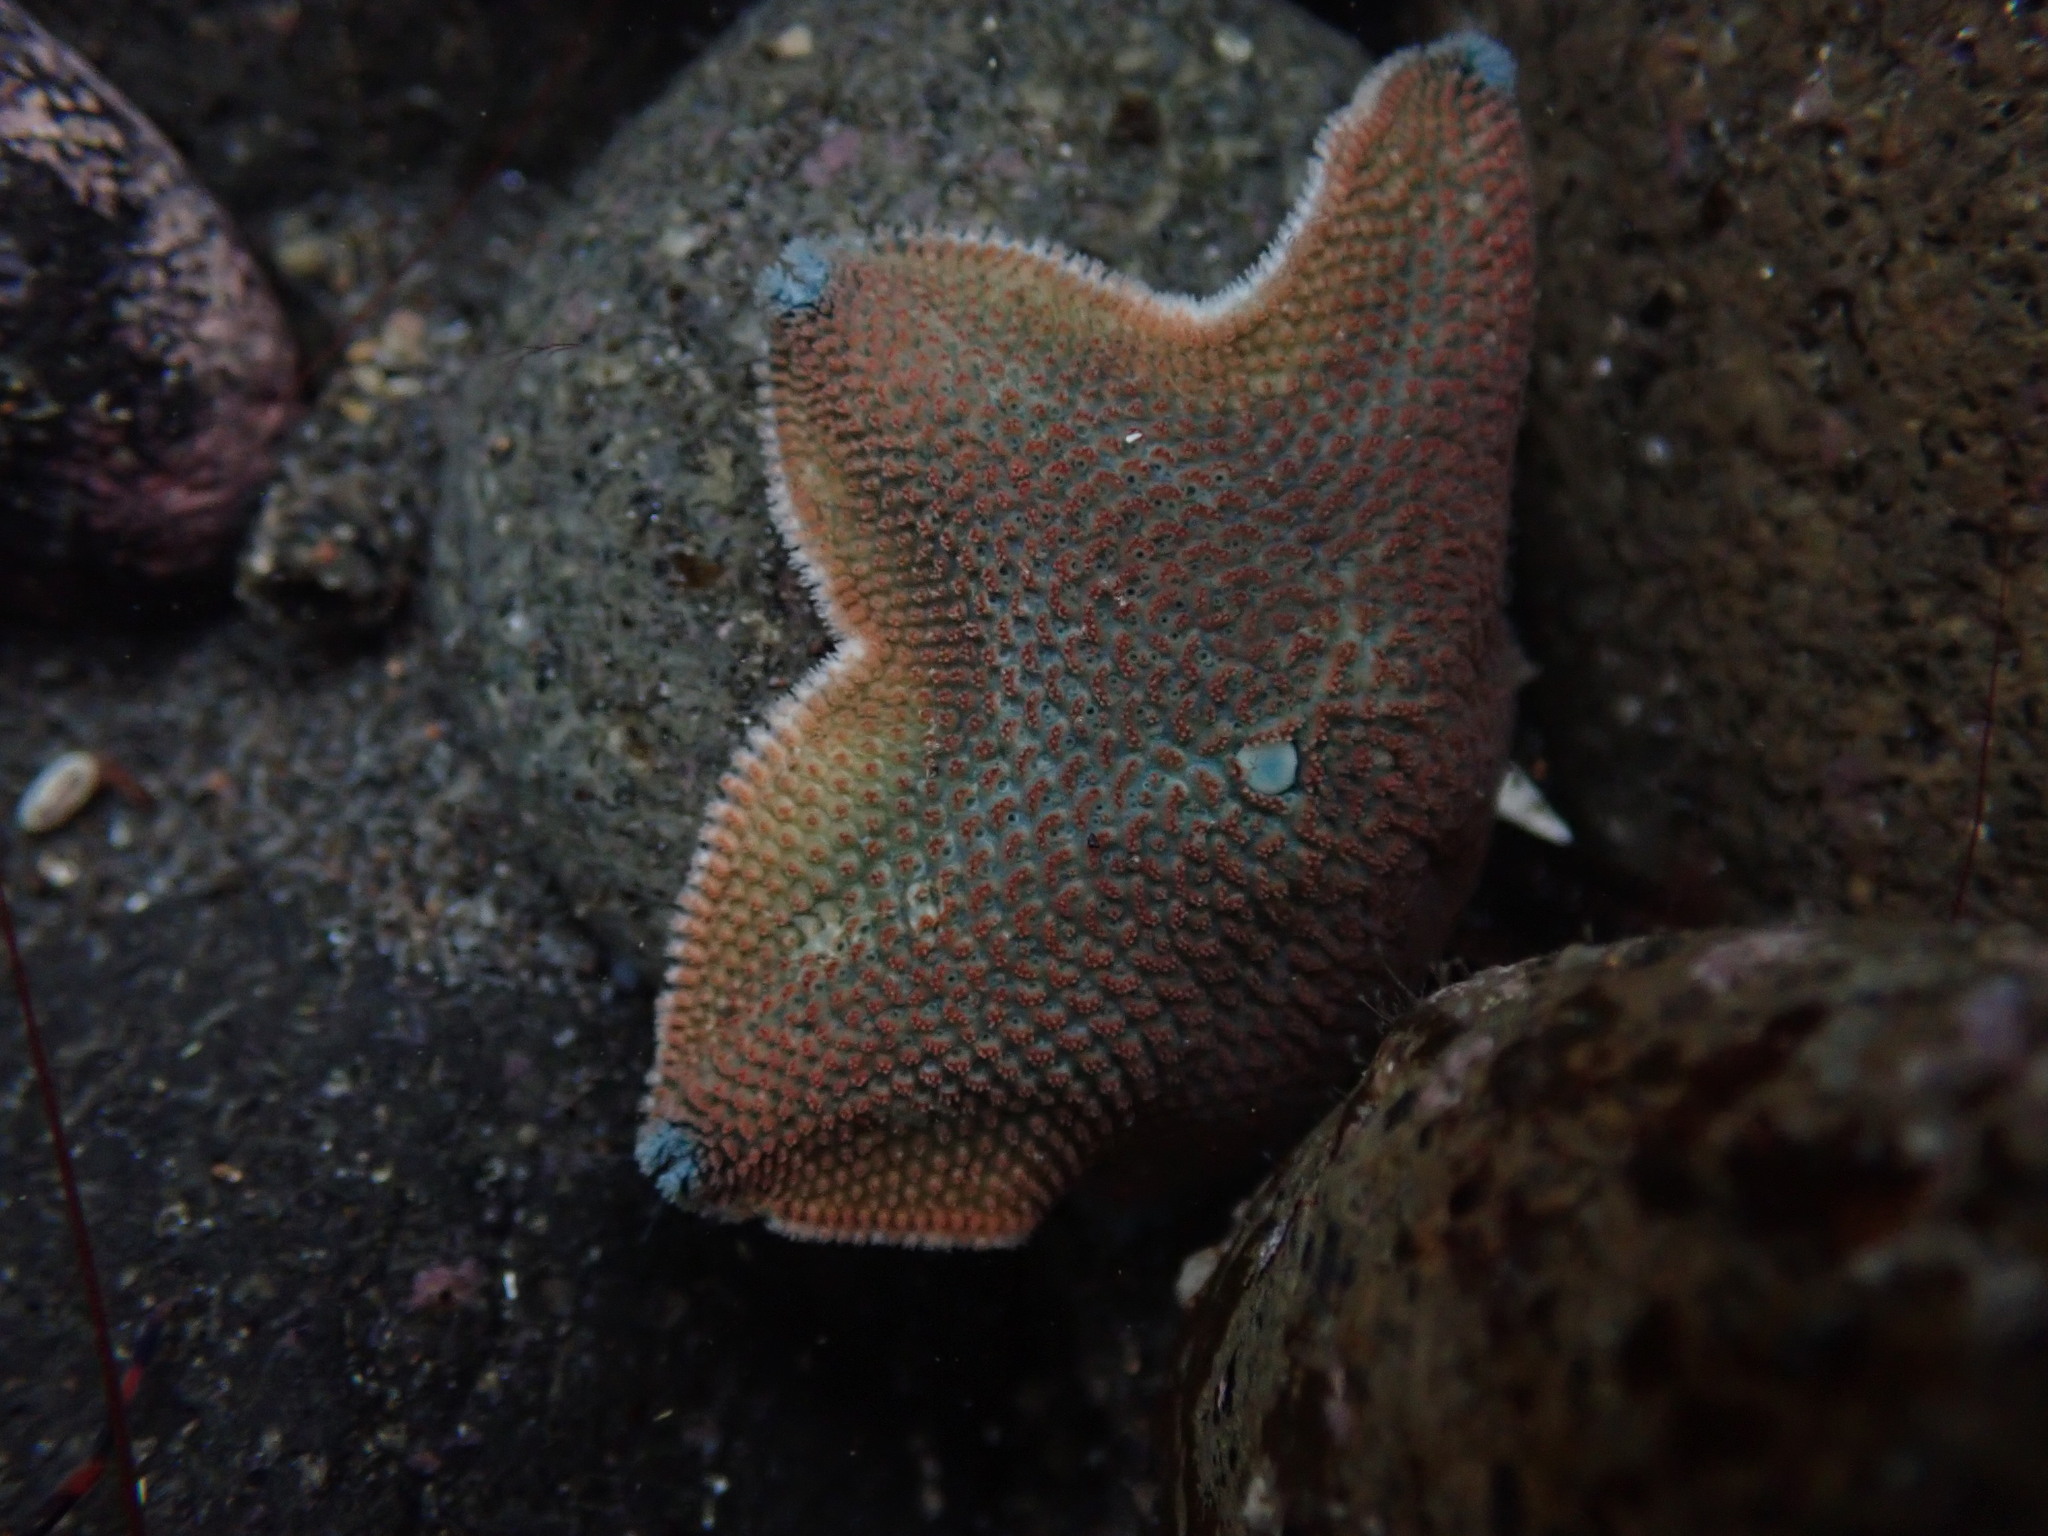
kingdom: Animalia
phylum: Echinodermata
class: Asteroidea
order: Valvatida
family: Asterinidae
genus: Patiriella
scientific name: Patiriella regularis
